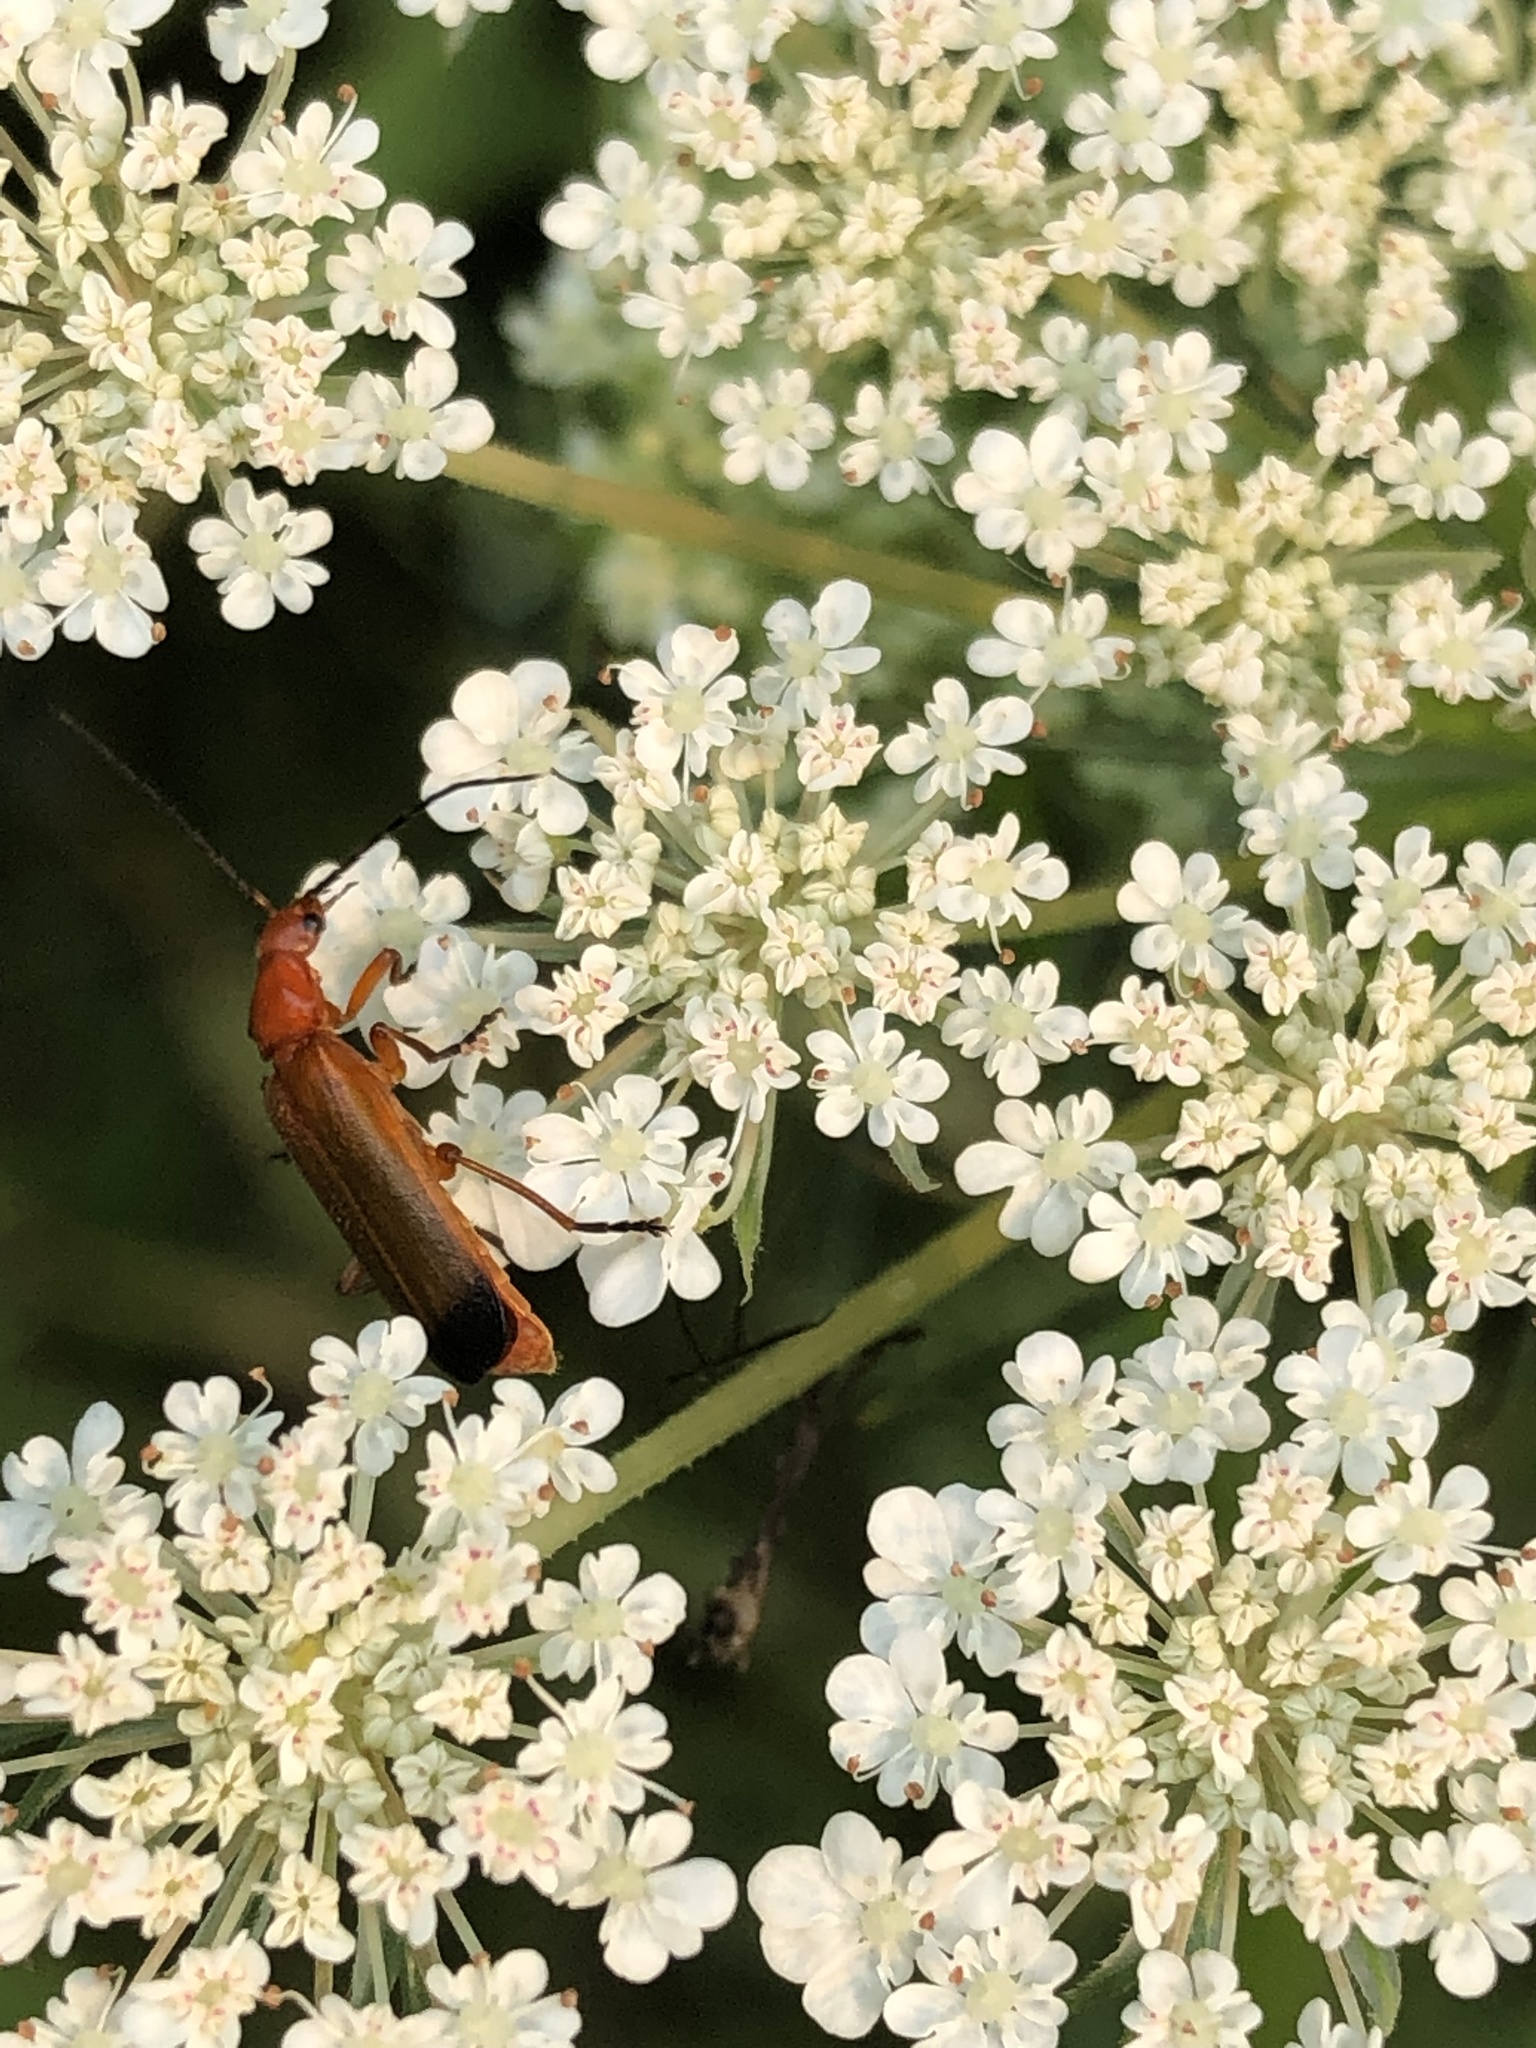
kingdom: Animalia
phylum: Arthropoda
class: Insecta
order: Coleoptera
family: Cantharidae
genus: Rhagonycha
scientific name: Rhagonycha fulva
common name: Common red soldier beetle
